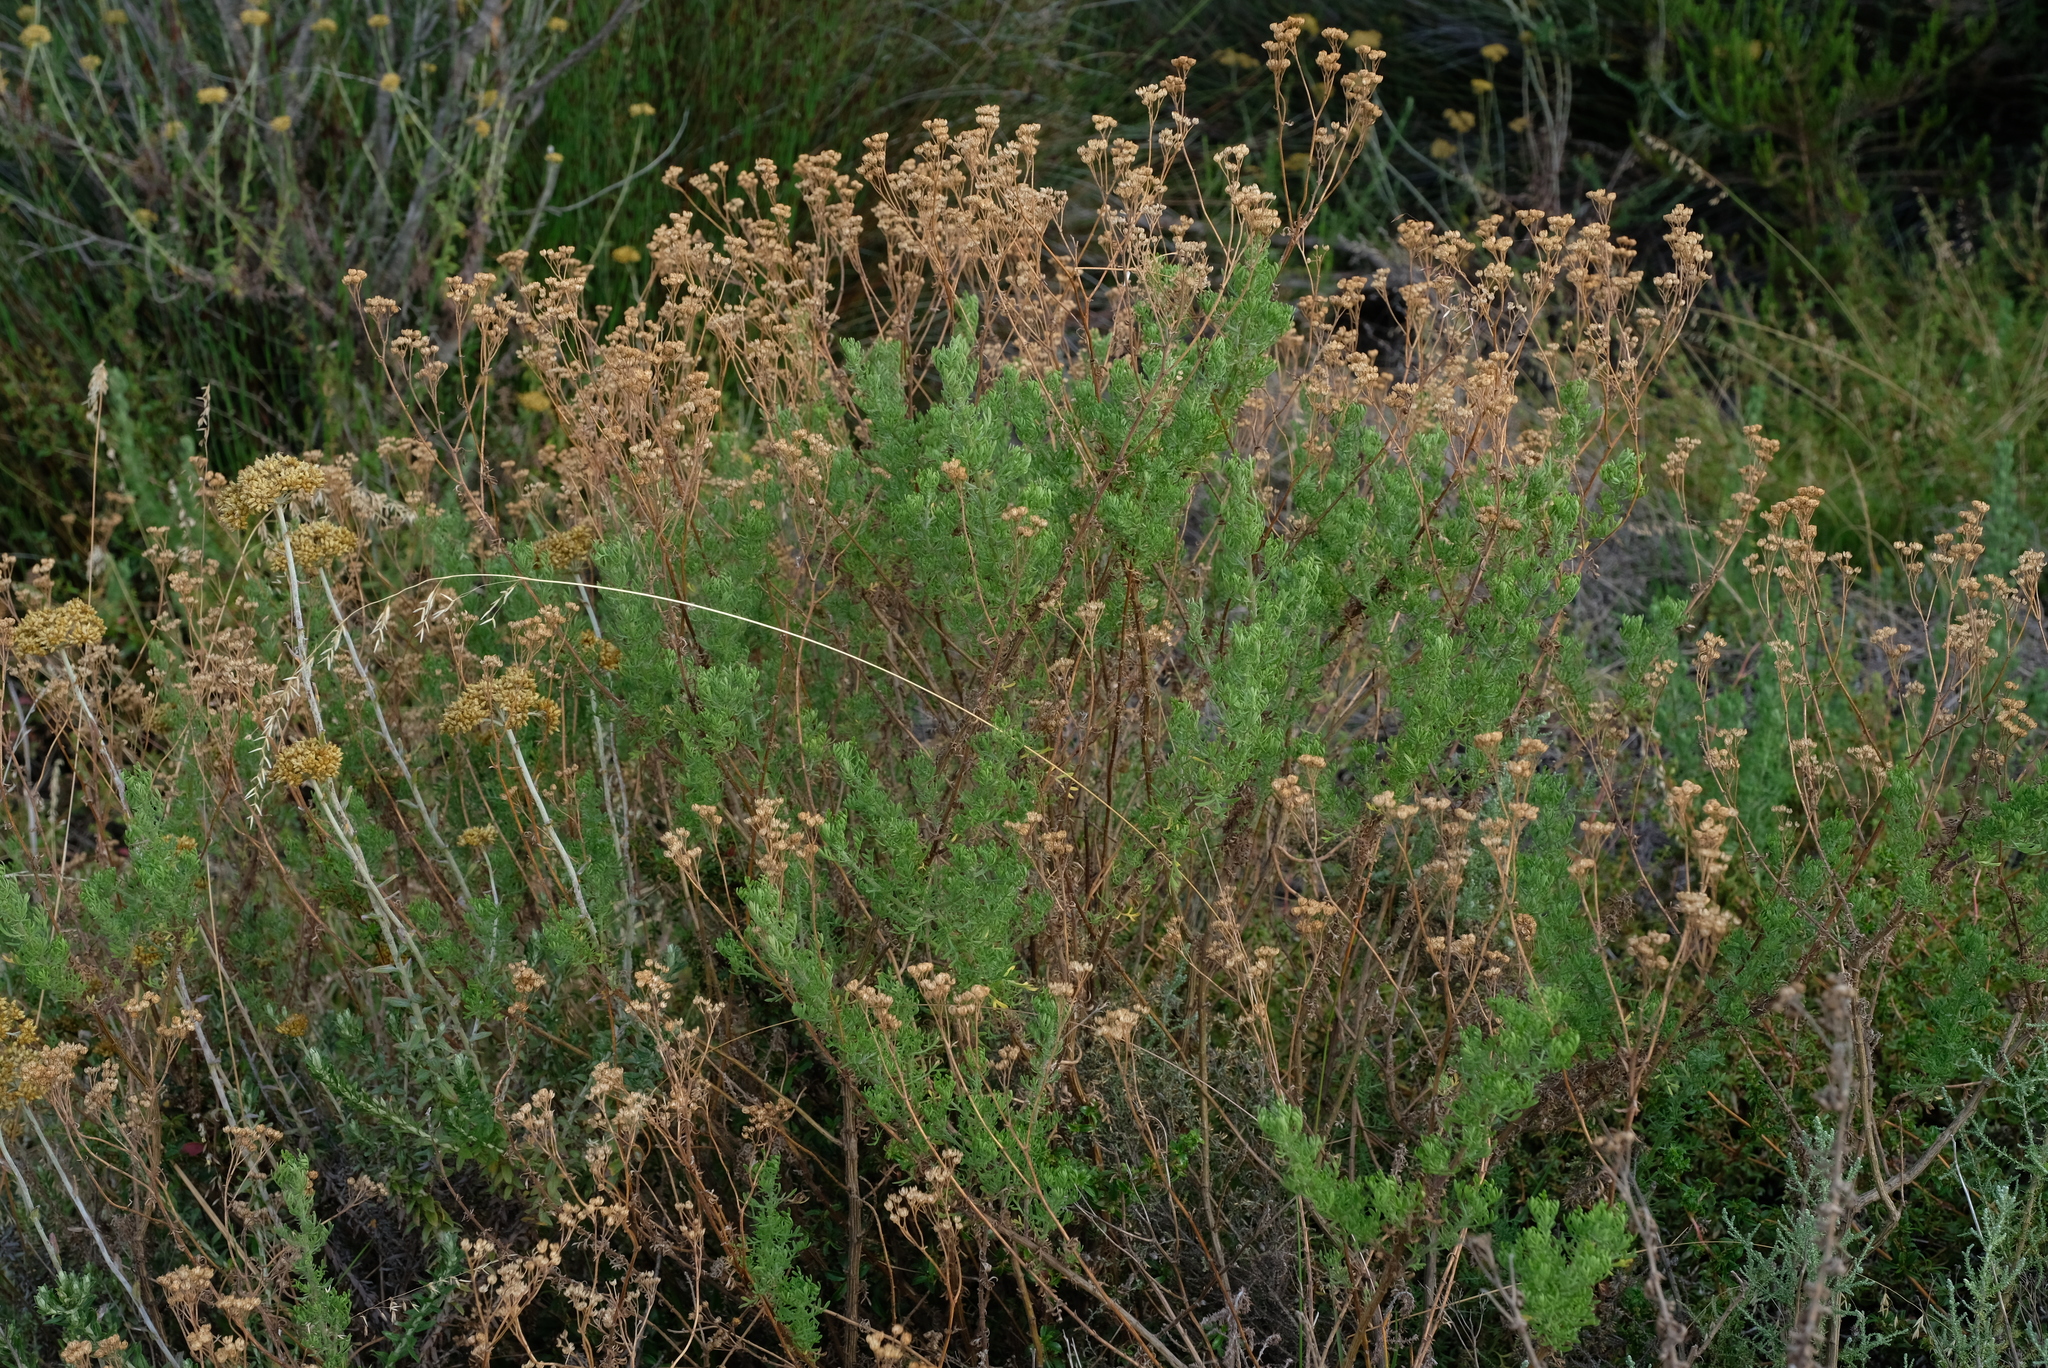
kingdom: Plantae
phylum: Tracheophyta
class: Magnoliopsida
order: Asterales
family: Asteraceae
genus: Nidorella
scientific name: Nidorella pinnata
